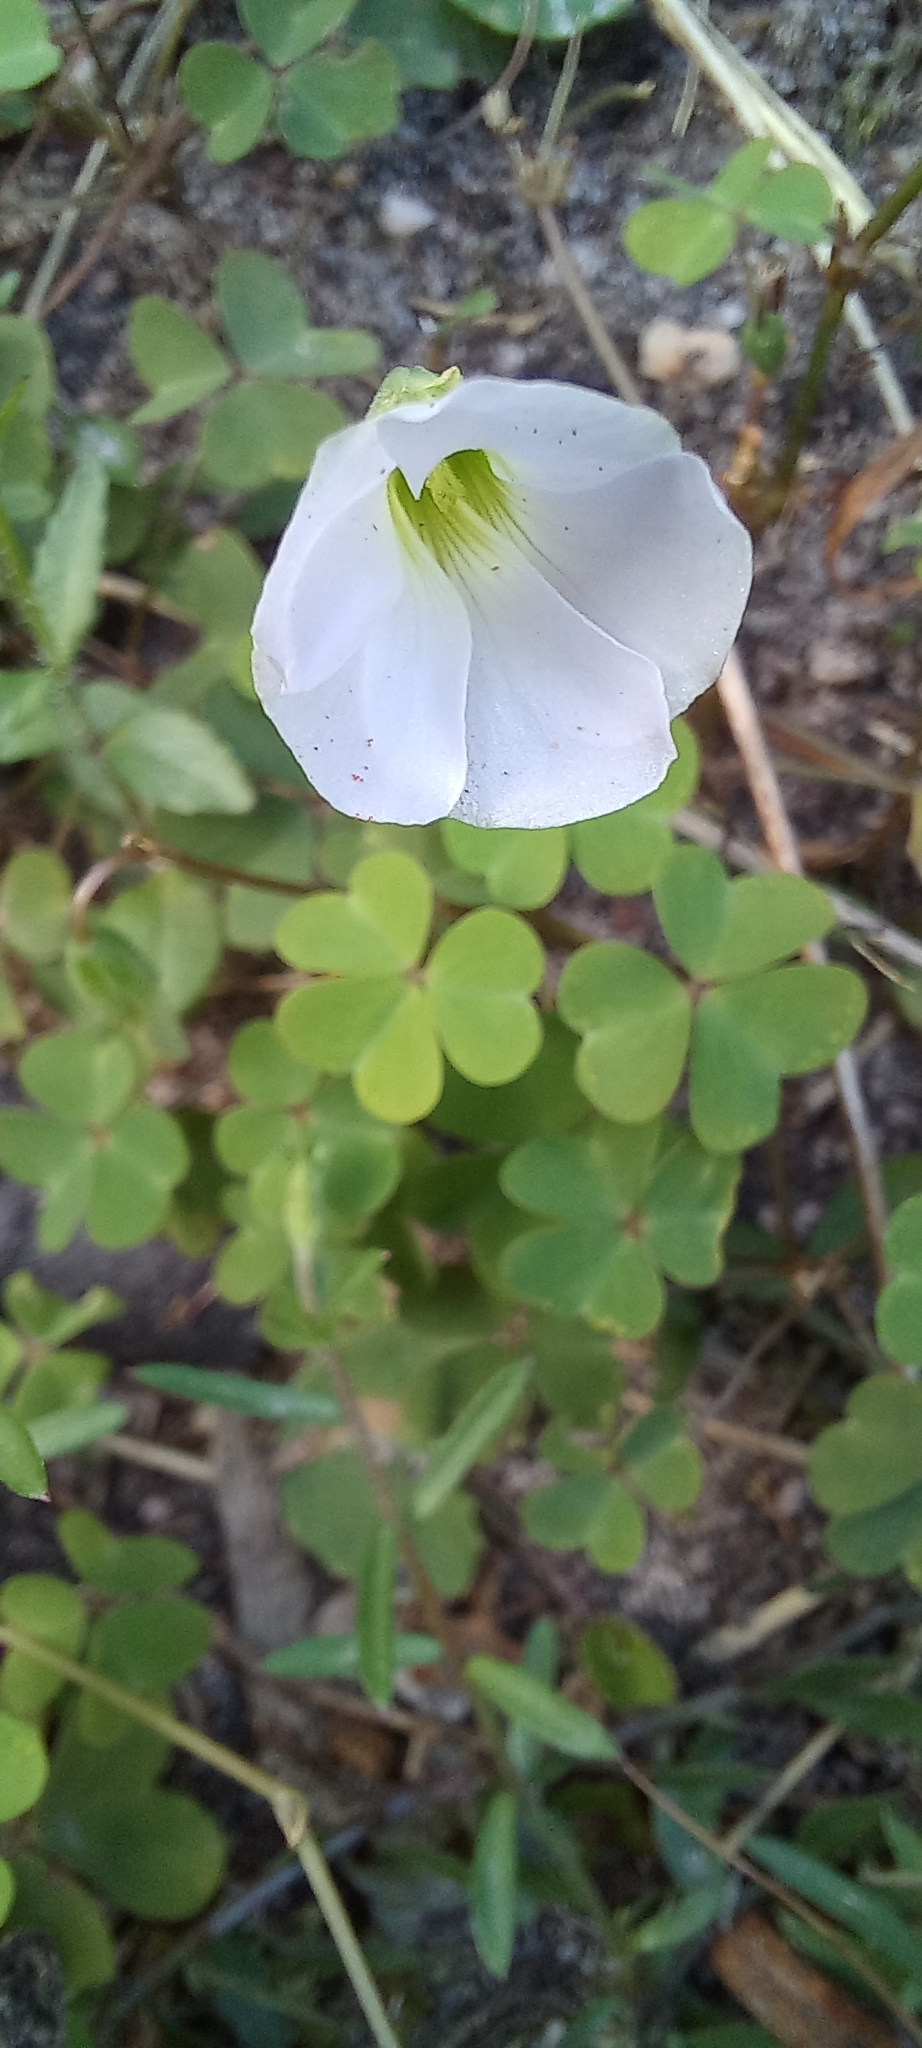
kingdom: Plantae
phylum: Tracheophyta
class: Magnoliopsida
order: Oxalidales
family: Oxalidaceae
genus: Oxalis
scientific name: Oxalis incarnata
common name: Pale pink-sorrel
